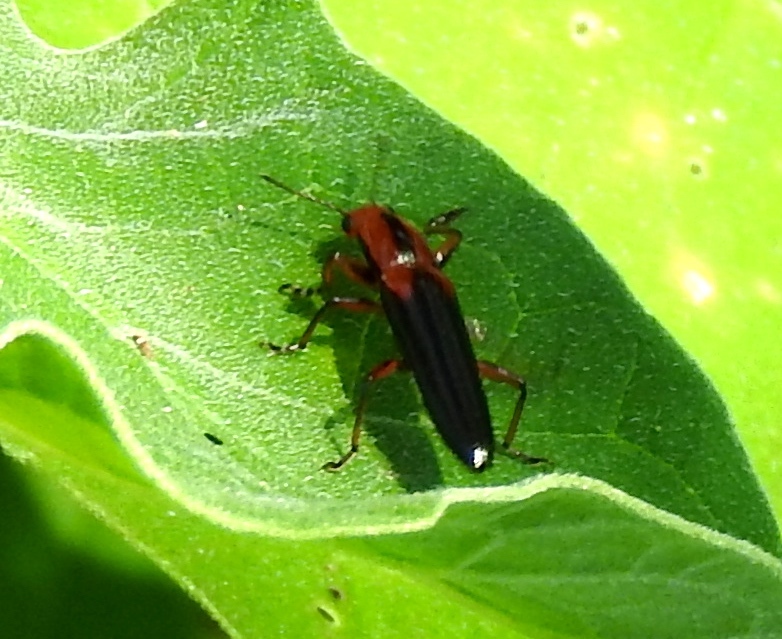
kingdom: Animalia
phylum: Arthropoda
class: Insecta
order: Coleoptera
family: Erotylidae
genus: Langurites
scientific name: Langurites lineatus
